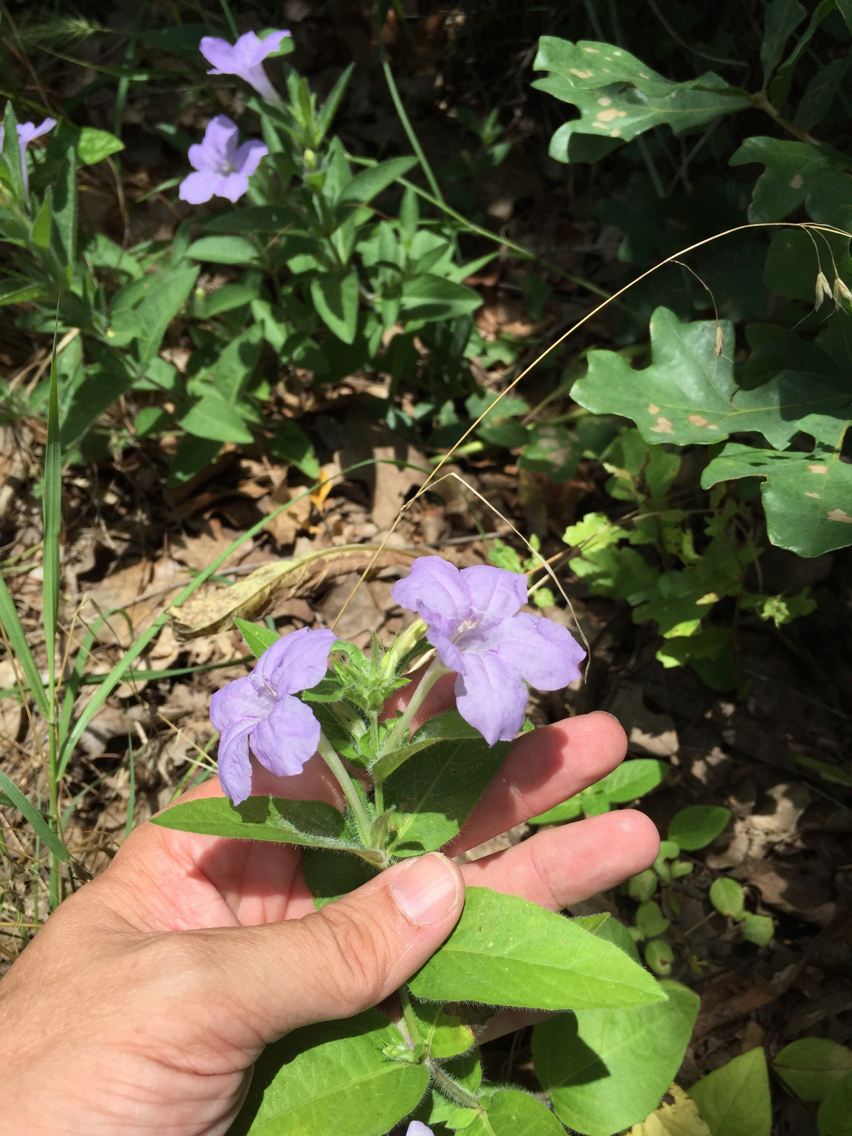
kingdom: Plantae
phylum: Tracheophyta
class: Magnoliopsida
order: Lamiales
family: Acanthaceae
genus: Ruellia
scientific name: Ruellia humilis
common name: Fringe-leaf ruellia
